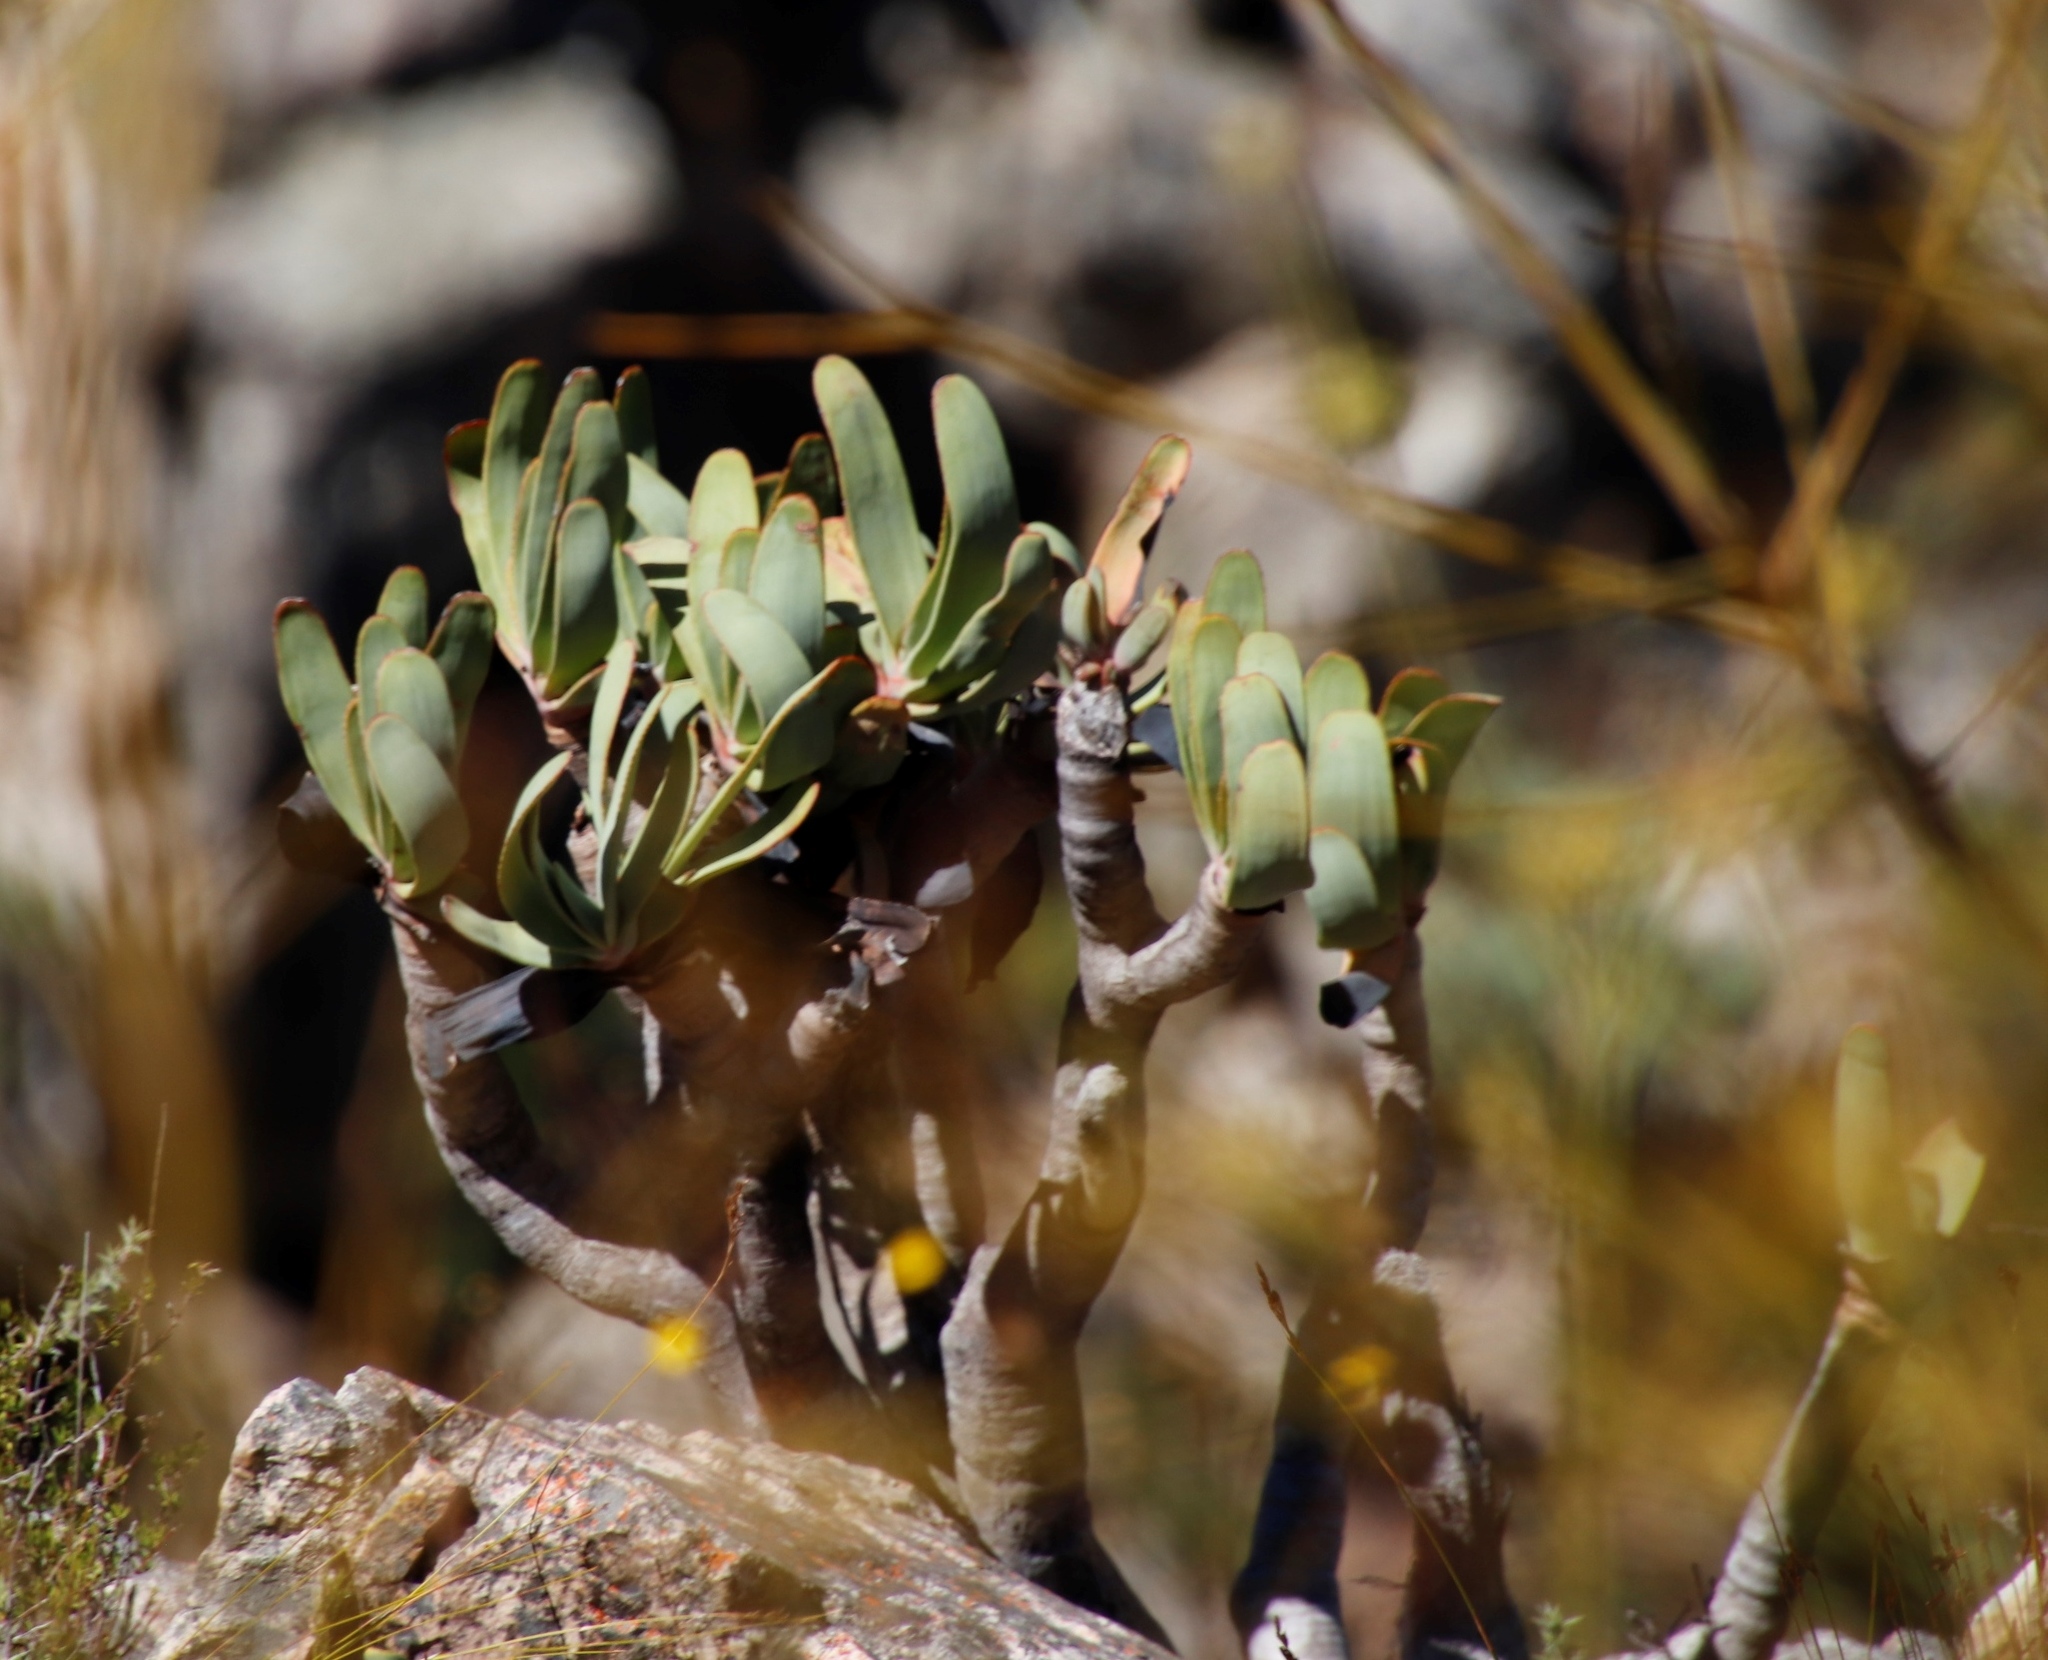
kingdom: Plantae
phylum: Tracheophyta
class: Liliopsida
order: Asparagales
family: Asphodelaceae
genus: Kumara
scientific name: Kumara plicatilis
